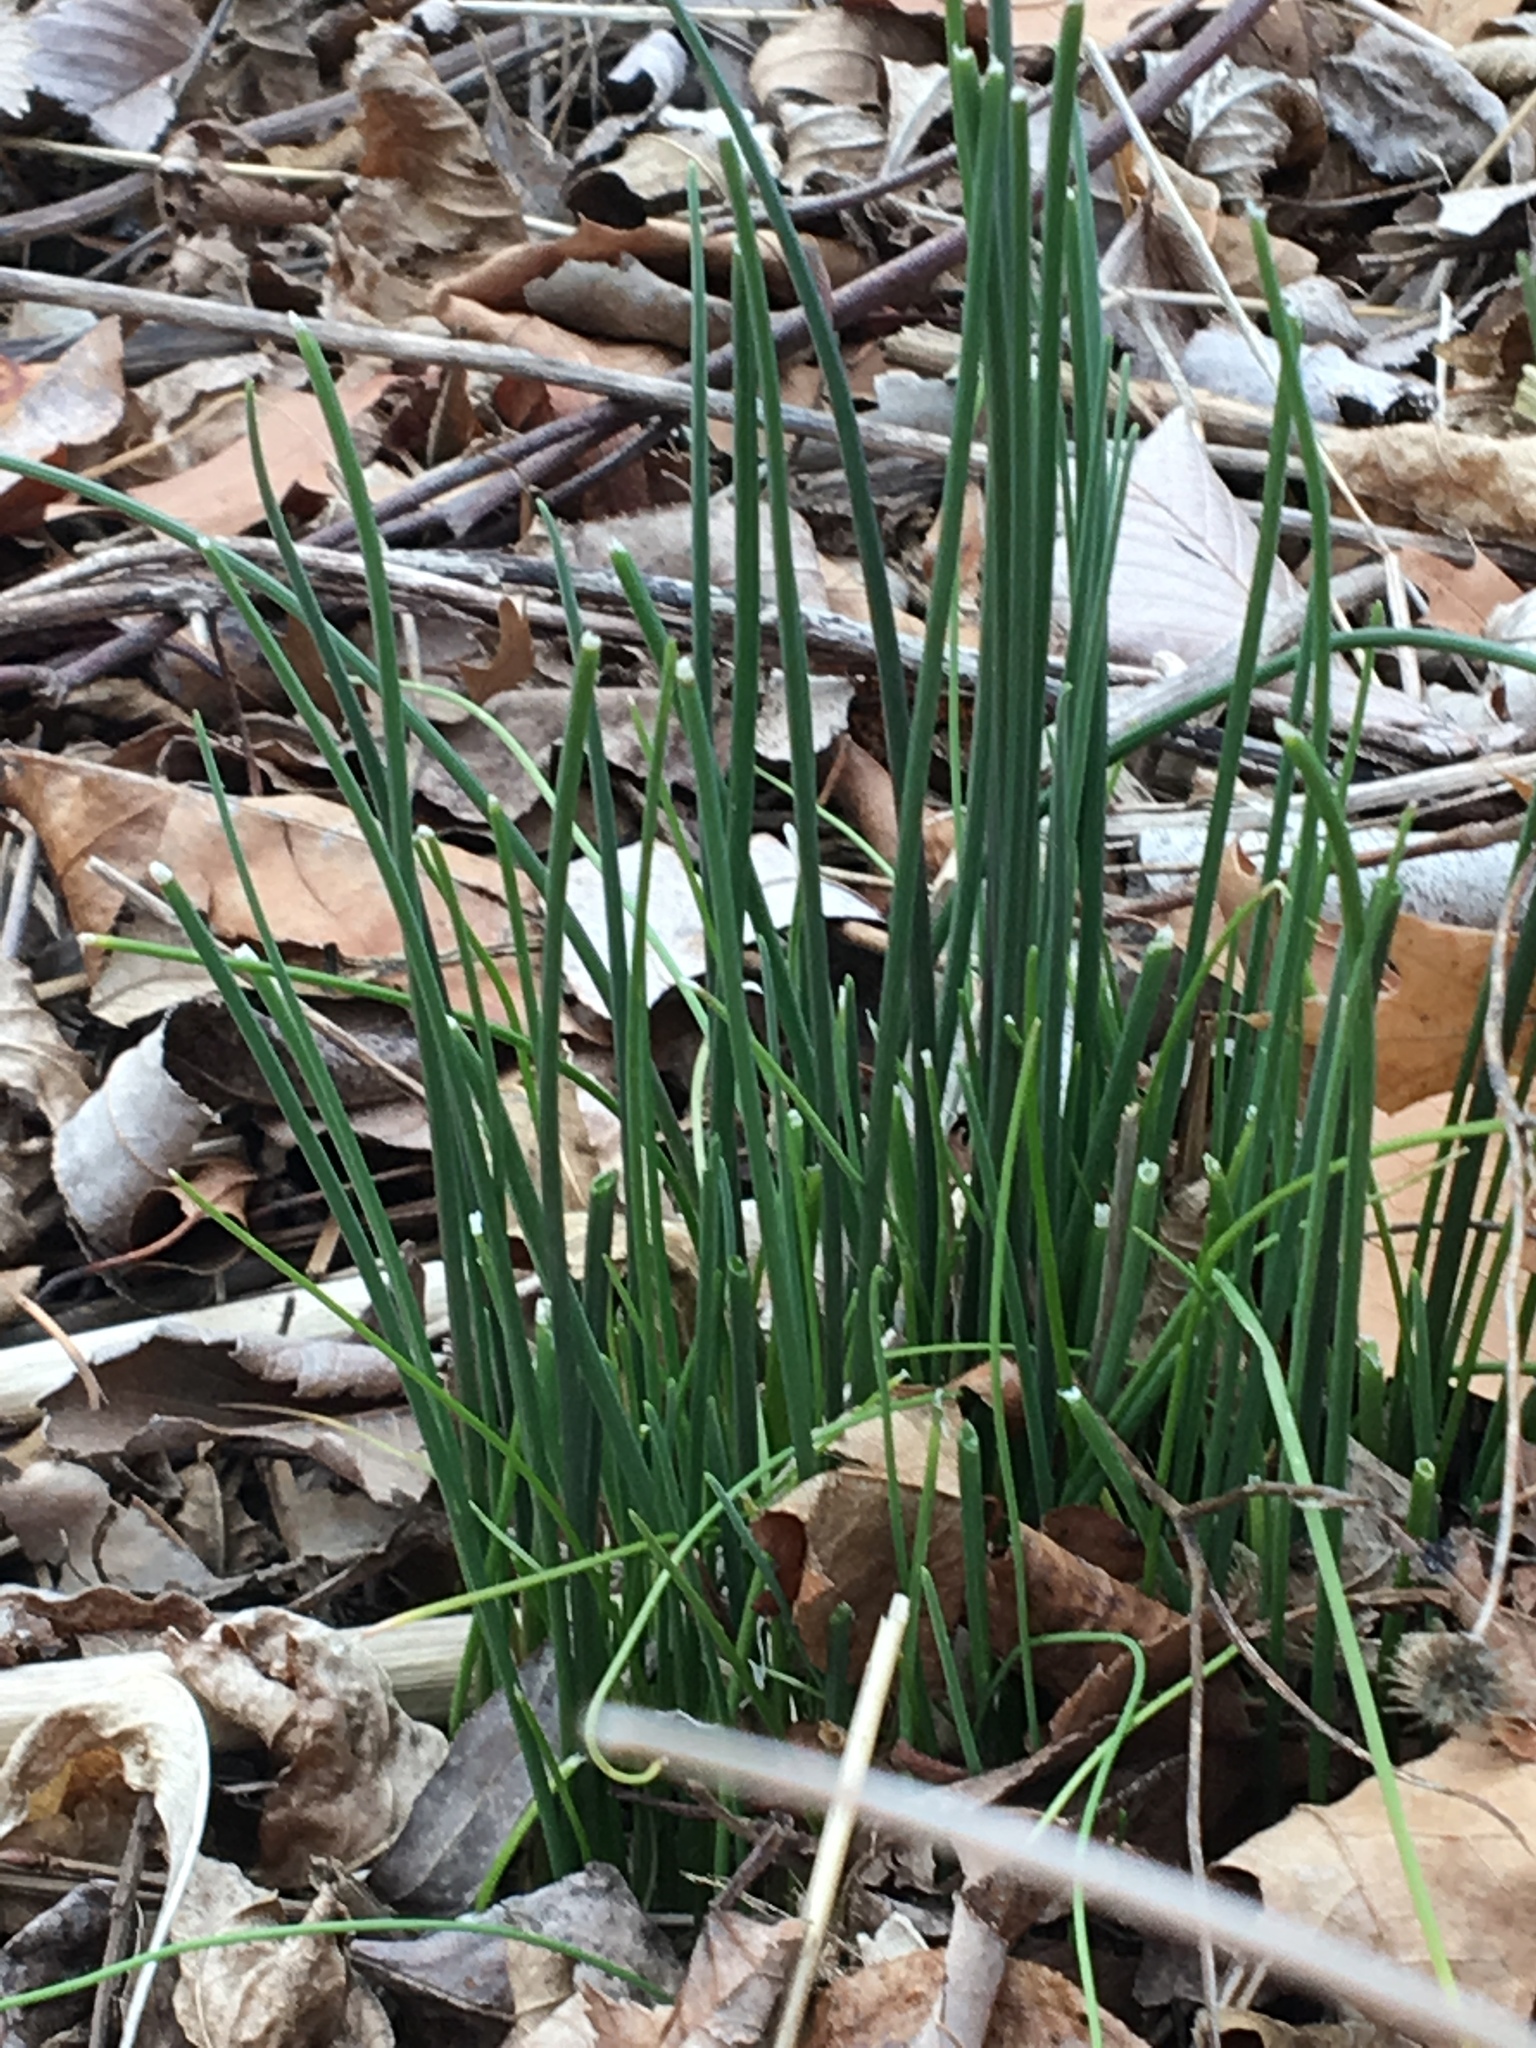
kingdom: Plantae
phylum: Tracheophyta
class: Liliopsida
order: Asparagales
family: Amaryllidaceae
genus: Allium
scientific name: Allium vineale
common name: Crow garlic
